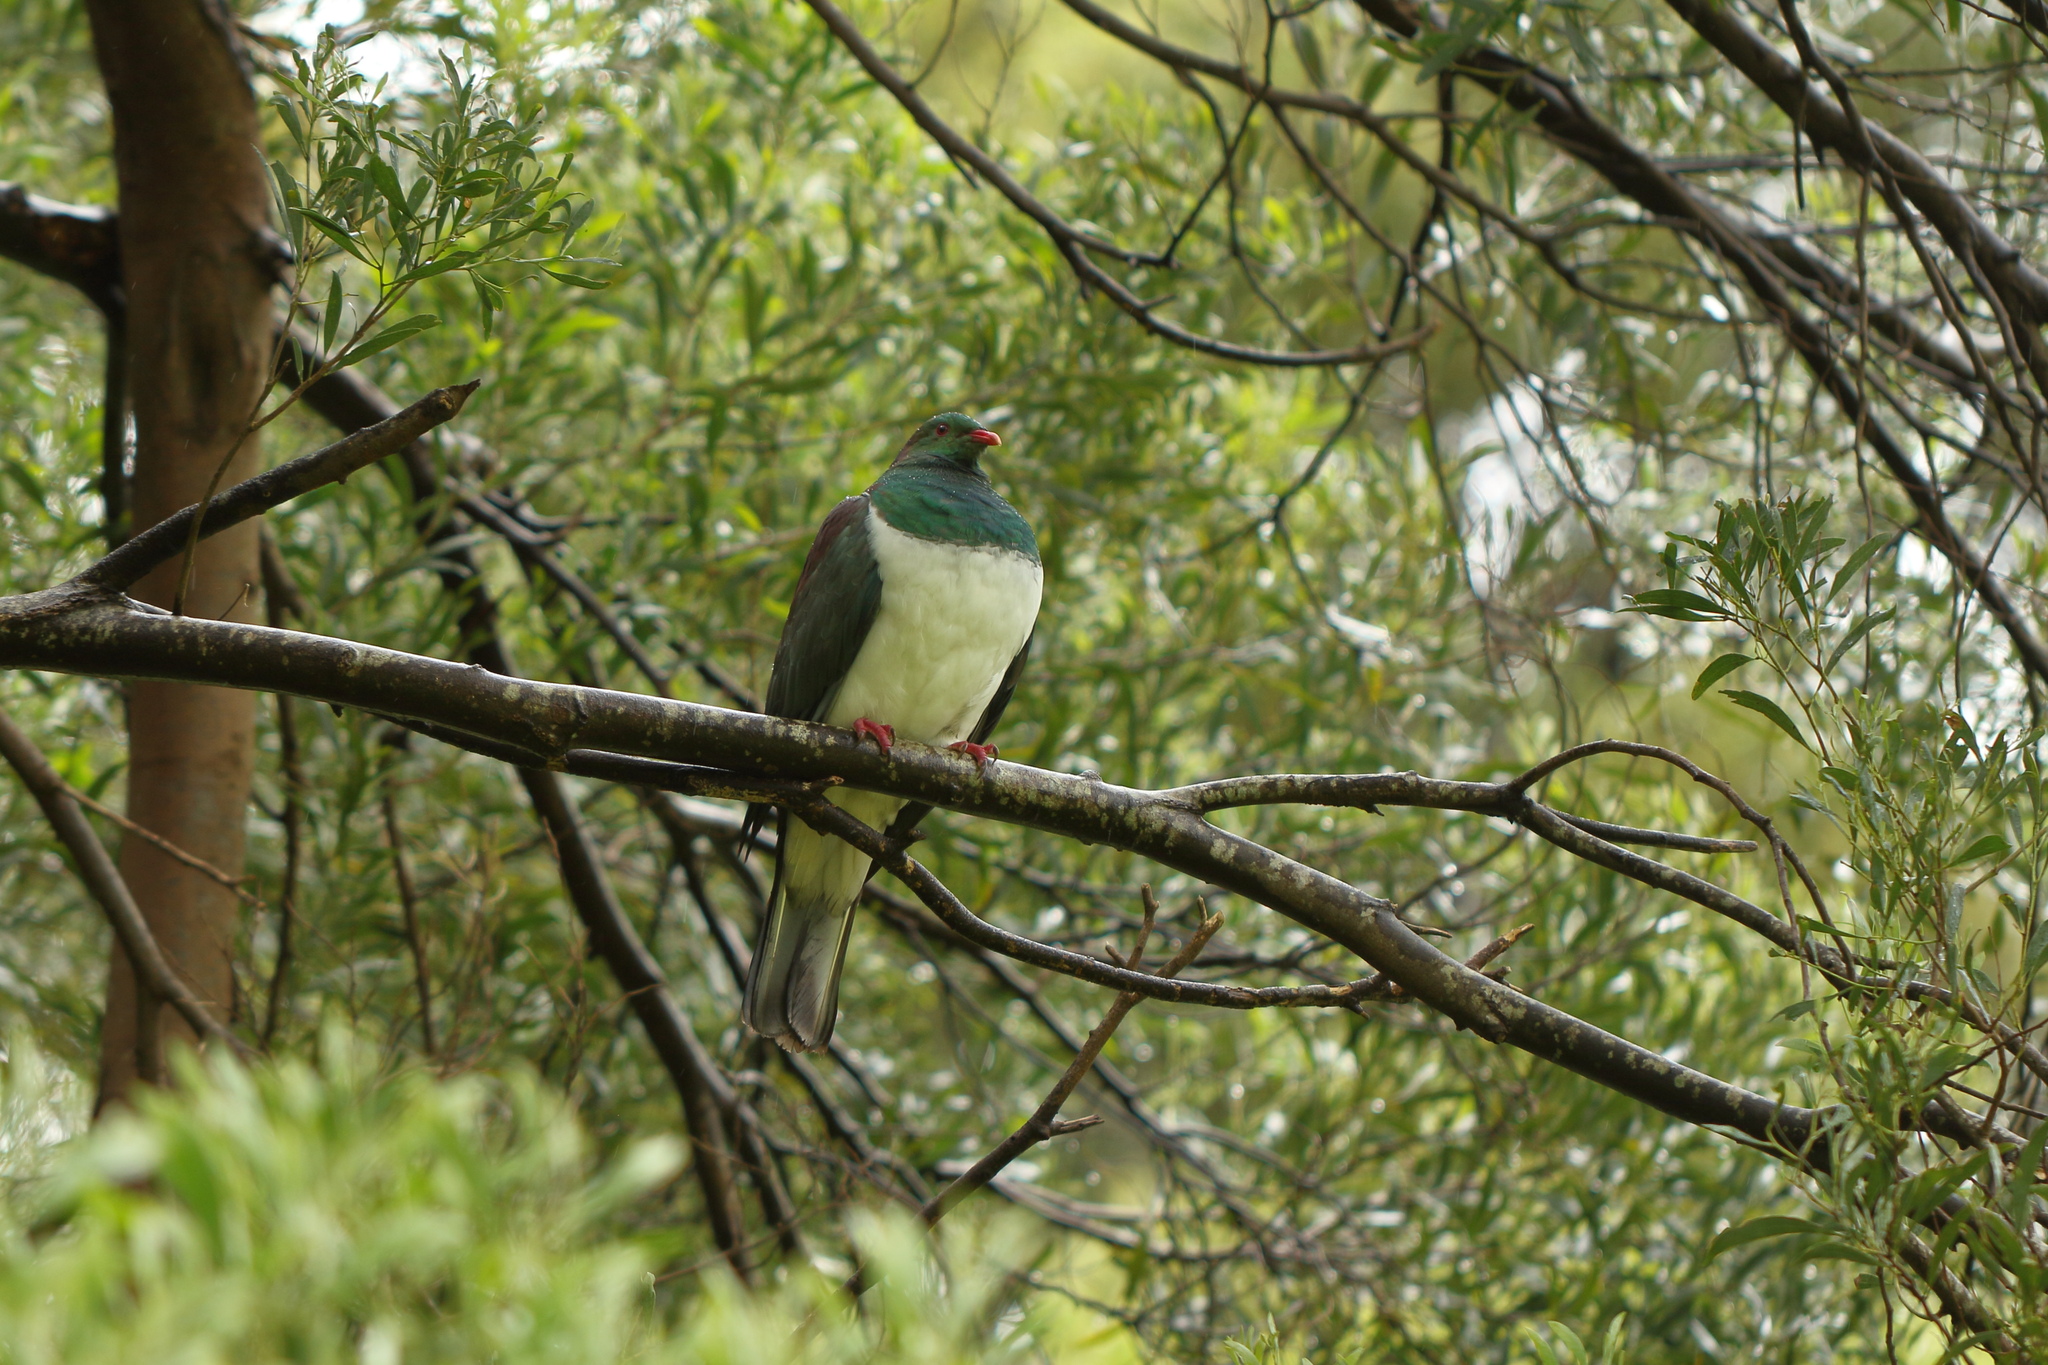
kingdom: Animalia
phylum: Chordata
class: Aves
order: Columbiformes
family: Columbidae
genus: Hemiphaga
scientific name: Hemiphaga novaeseelandiae
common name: New zealand pigeon
